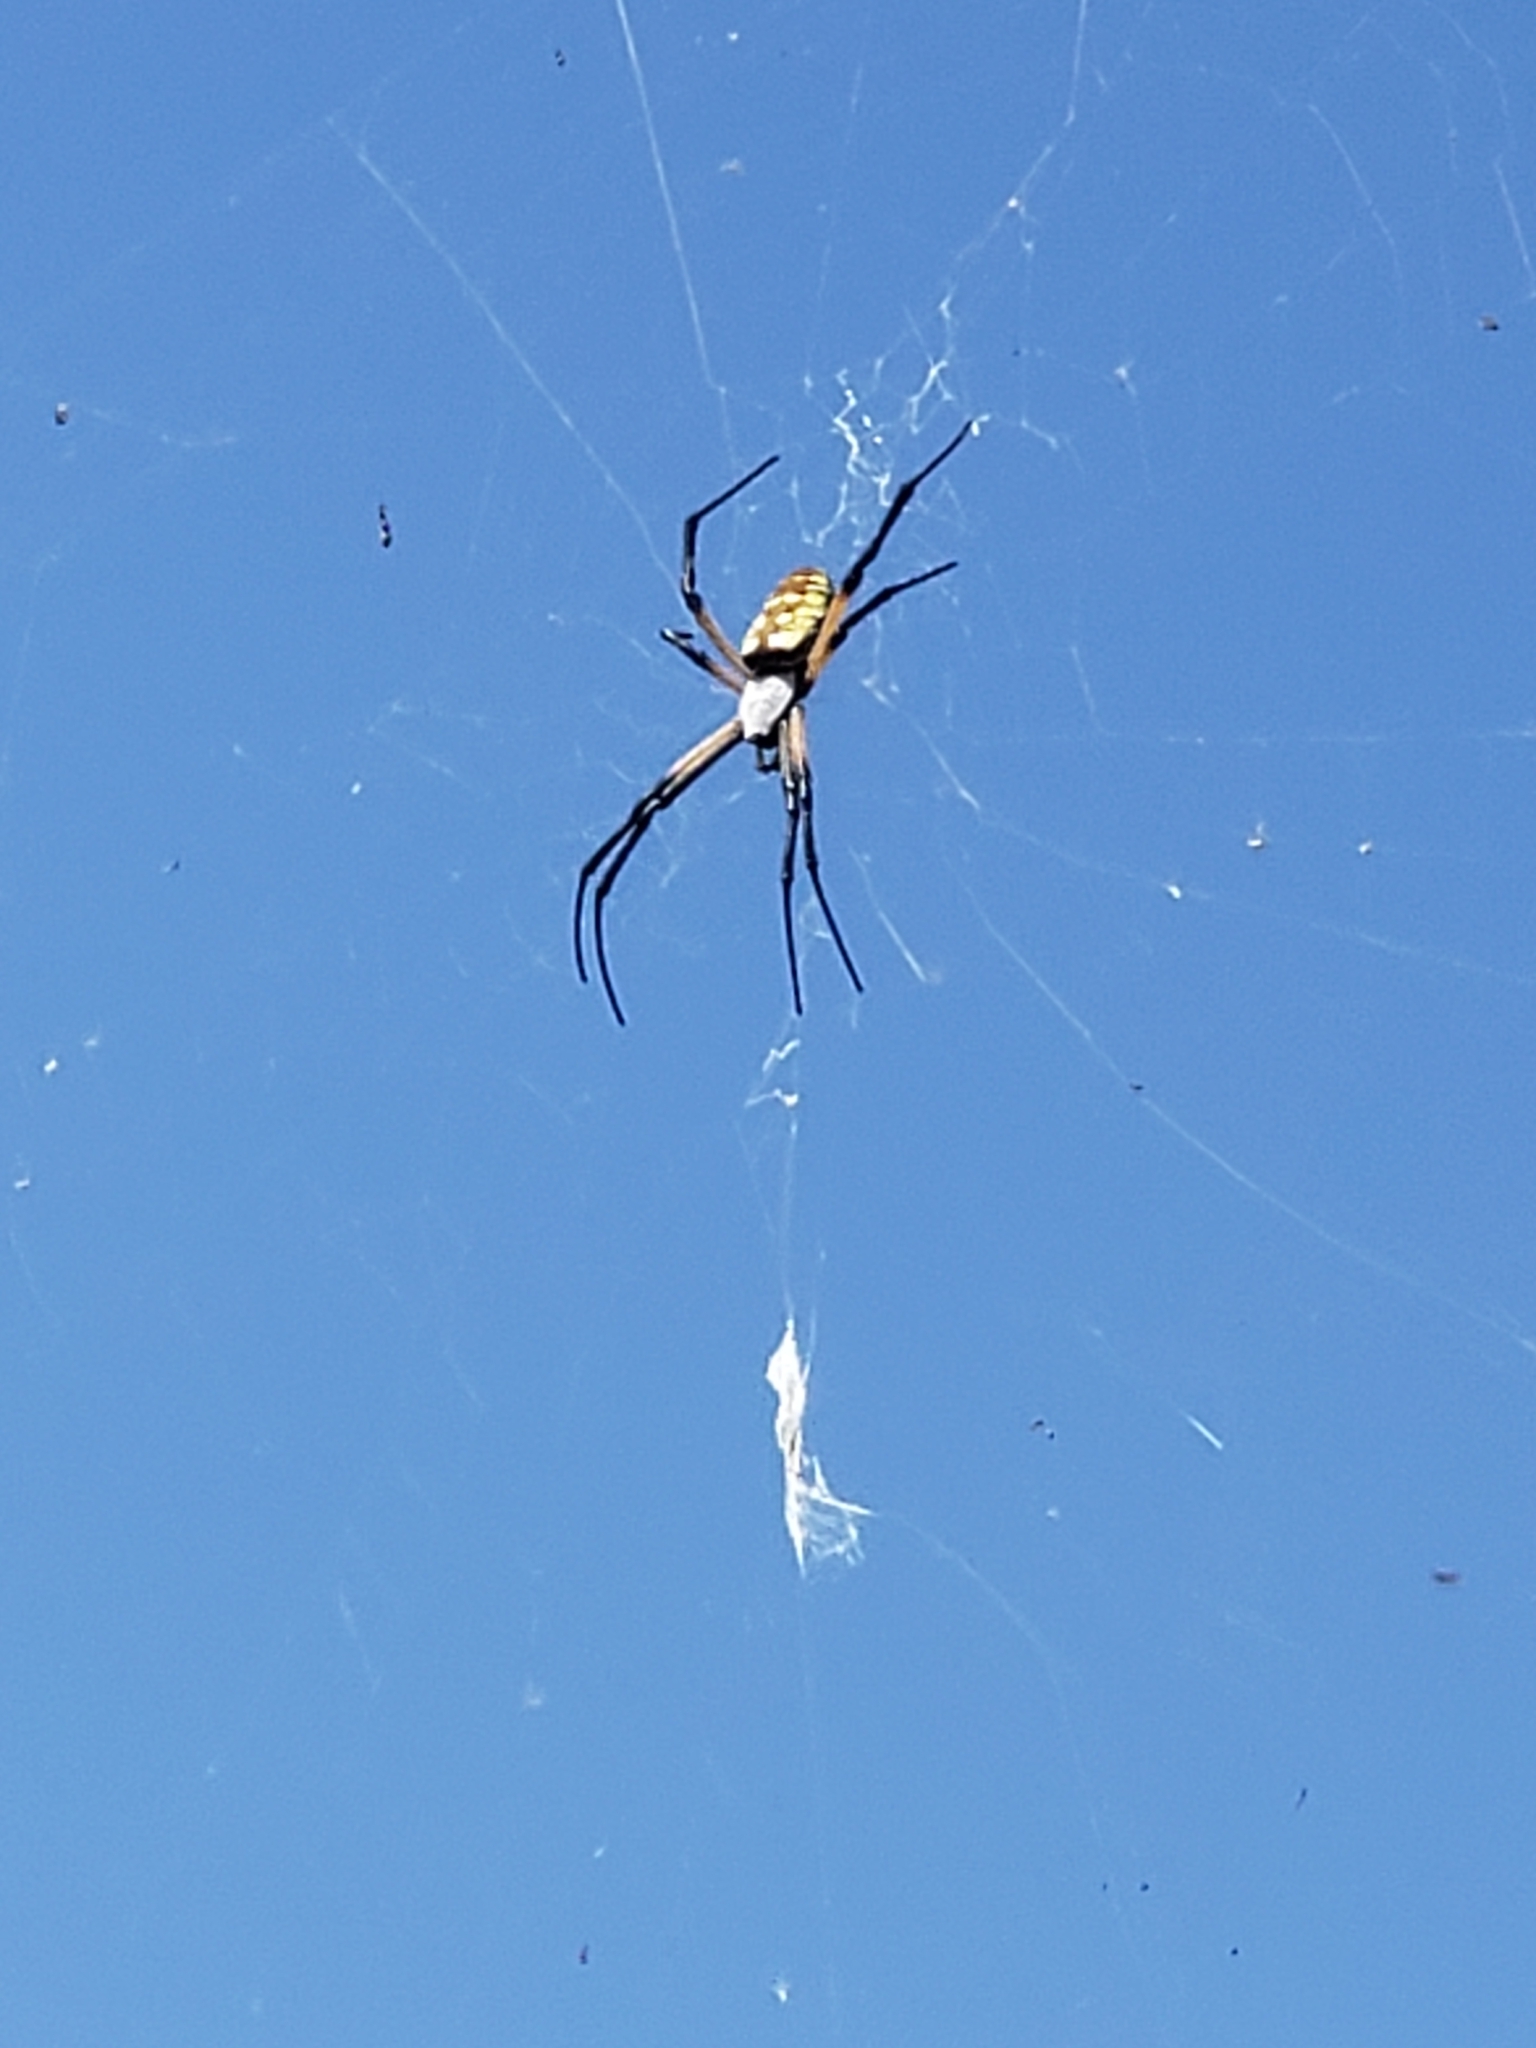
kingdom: Animalia
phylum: Arthropoda
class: Arachnida
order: Araneae
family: Araneidae
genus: Argiope
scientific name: Argiope aurantia
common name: Orb weavers
